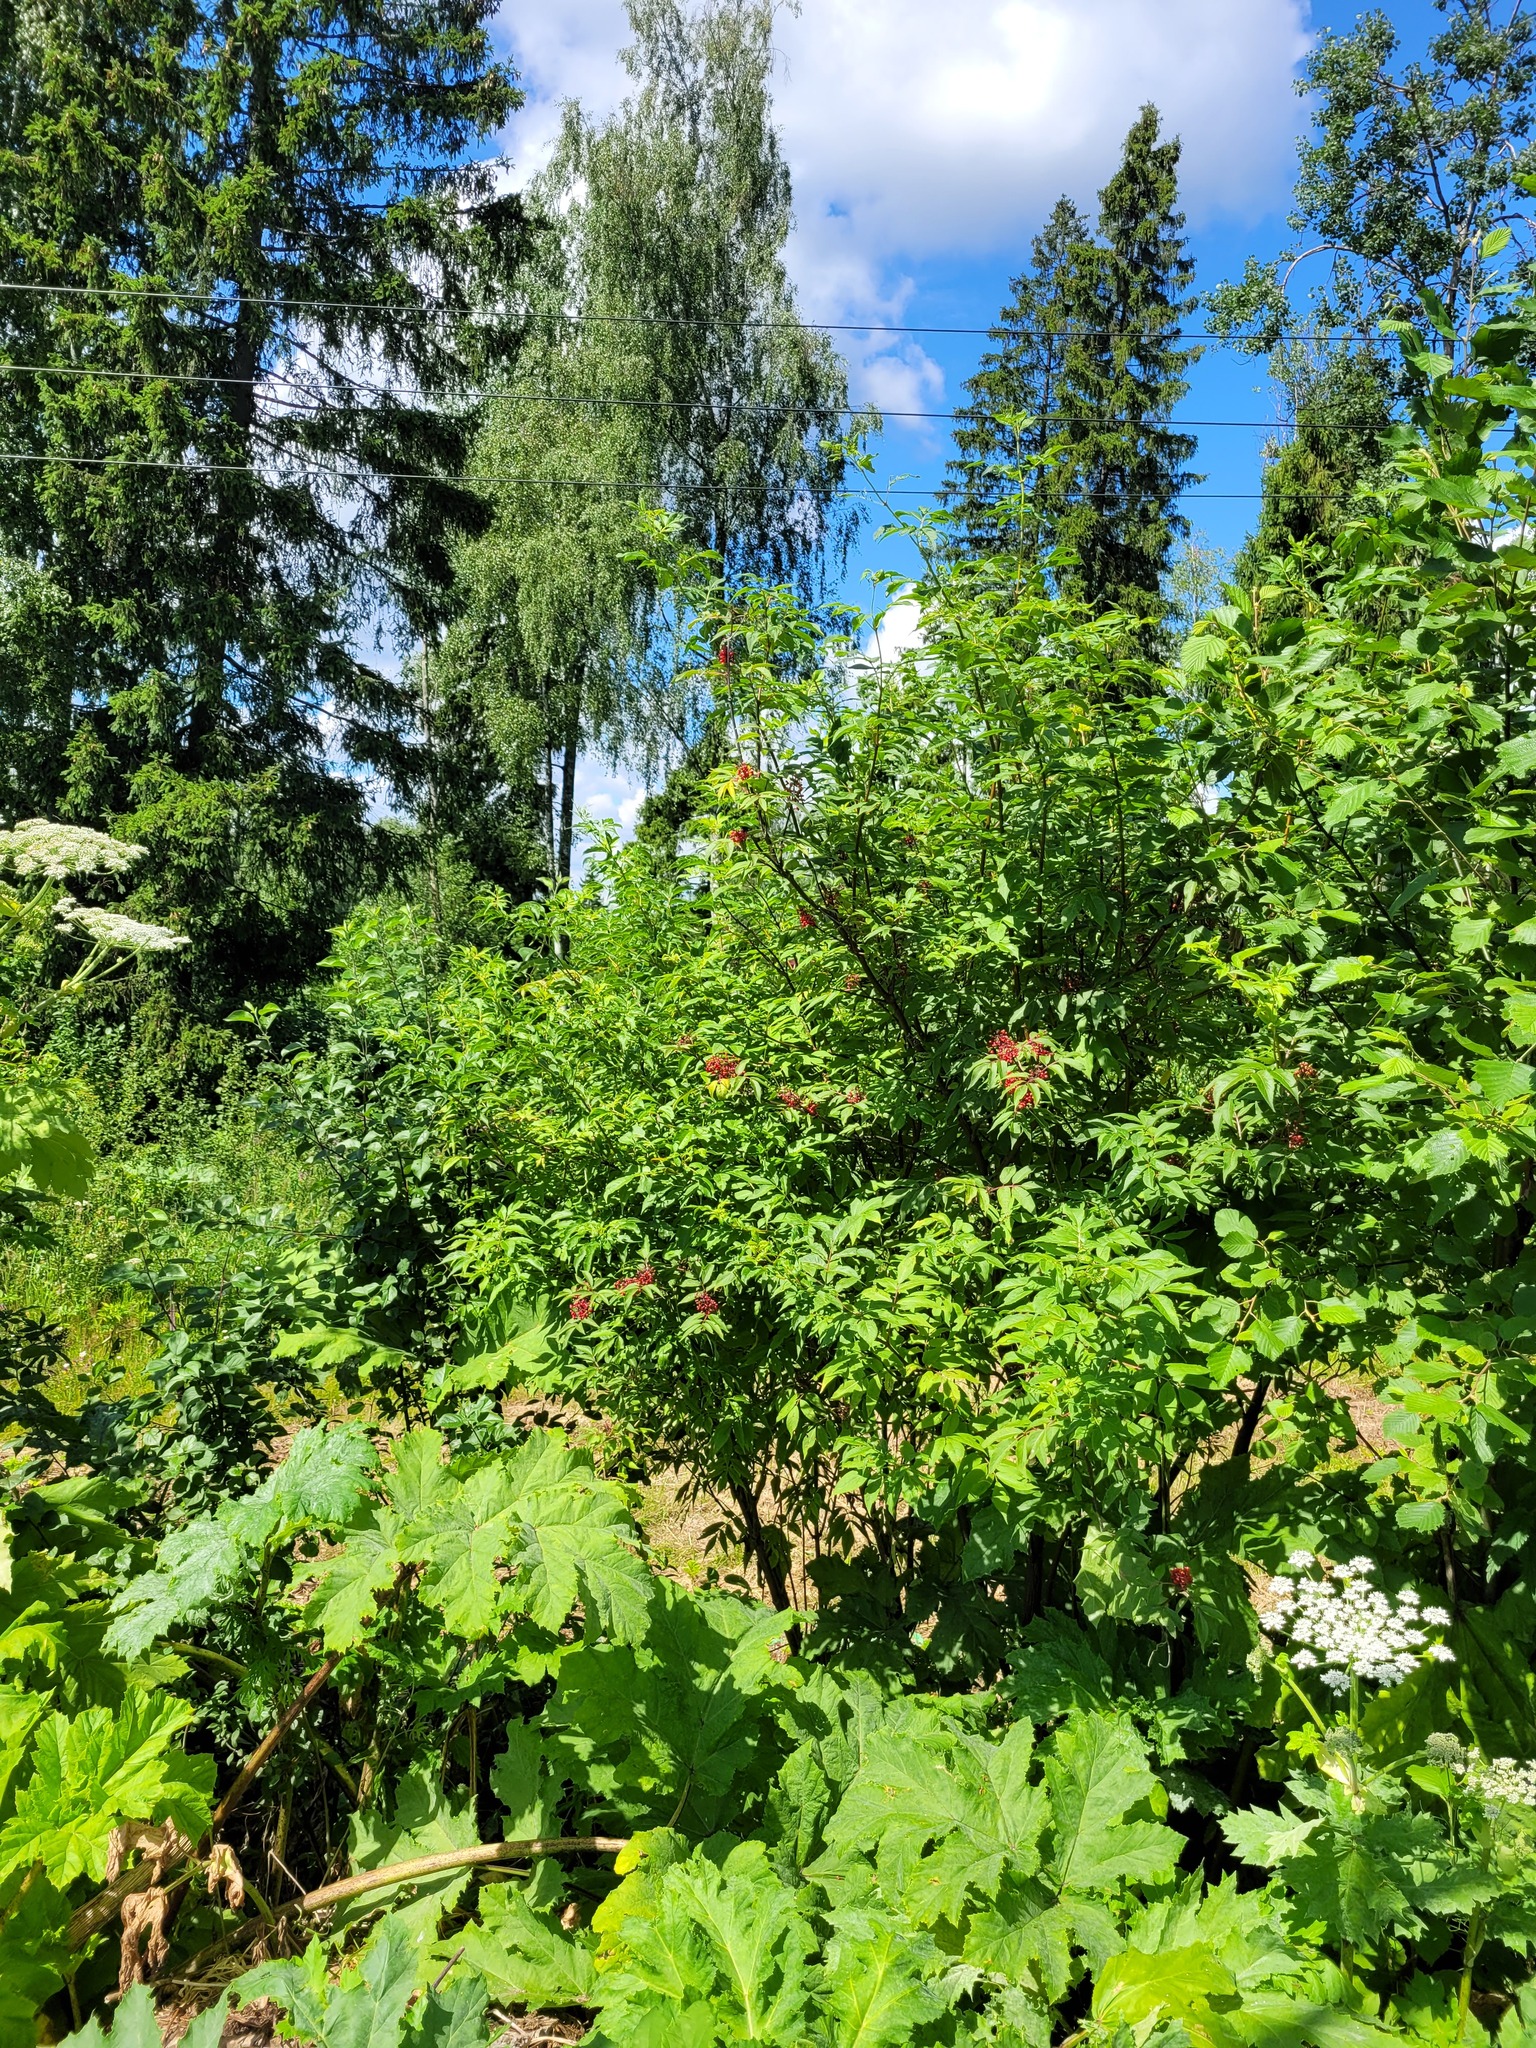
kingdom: Plantae
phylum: Tracheophyta
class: Magnoliopsida
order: Dipsacales
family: Viburnaceae
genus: Sambucus
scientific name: Sambucus racemosa
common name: Red-berried elder
